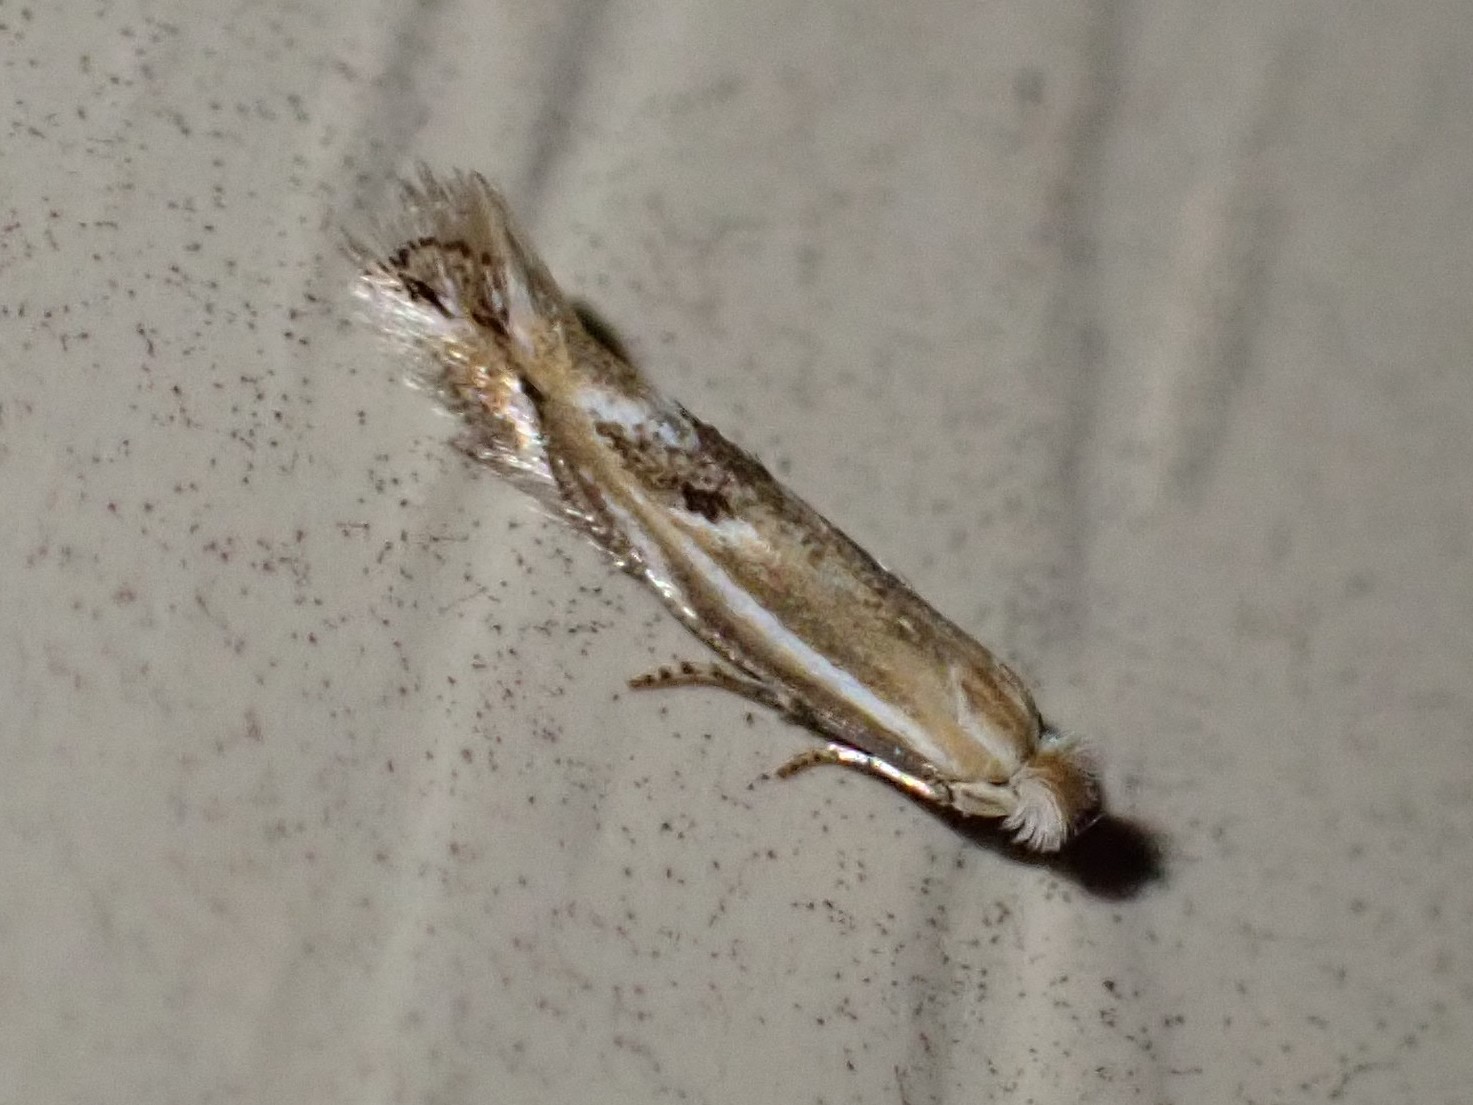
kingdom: Animalia
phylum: Arthropoda
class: Insecta
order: Lepidoptera
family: Bucculatricidae
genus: Bucculatrix
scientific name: Bucculatrix angustata
